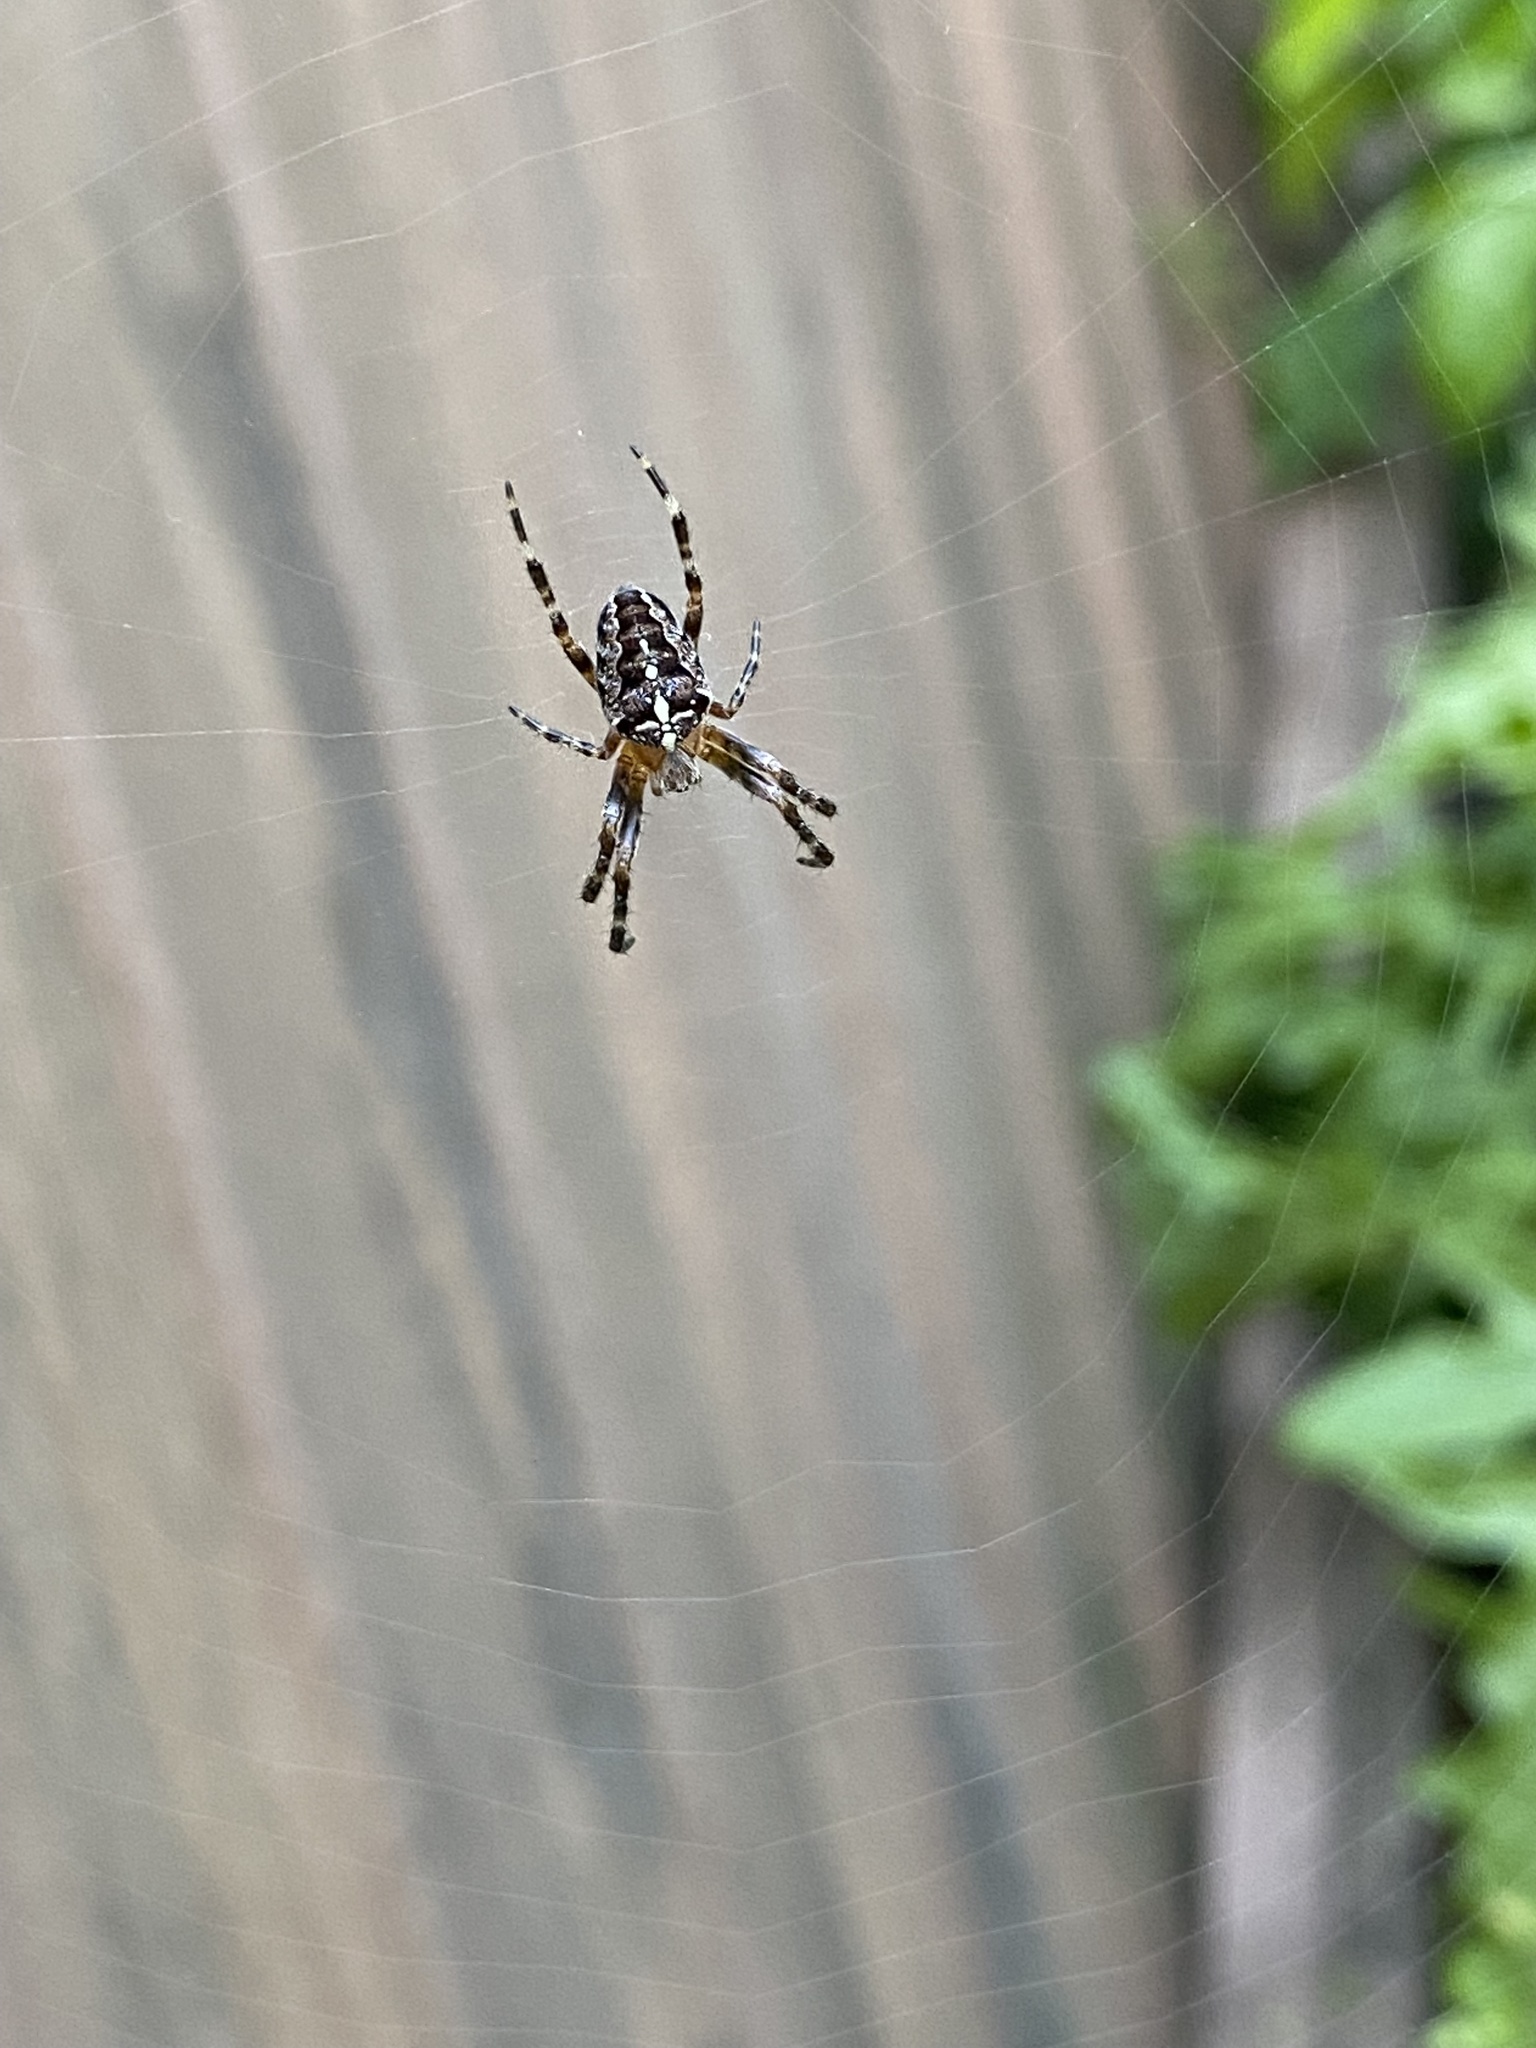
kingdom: Animalia
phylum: Arthropoda
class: Arachnida
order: Araneae
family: Araneidae
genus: Araneus
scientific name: Araneus diadematus
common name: Cross orbweaver
